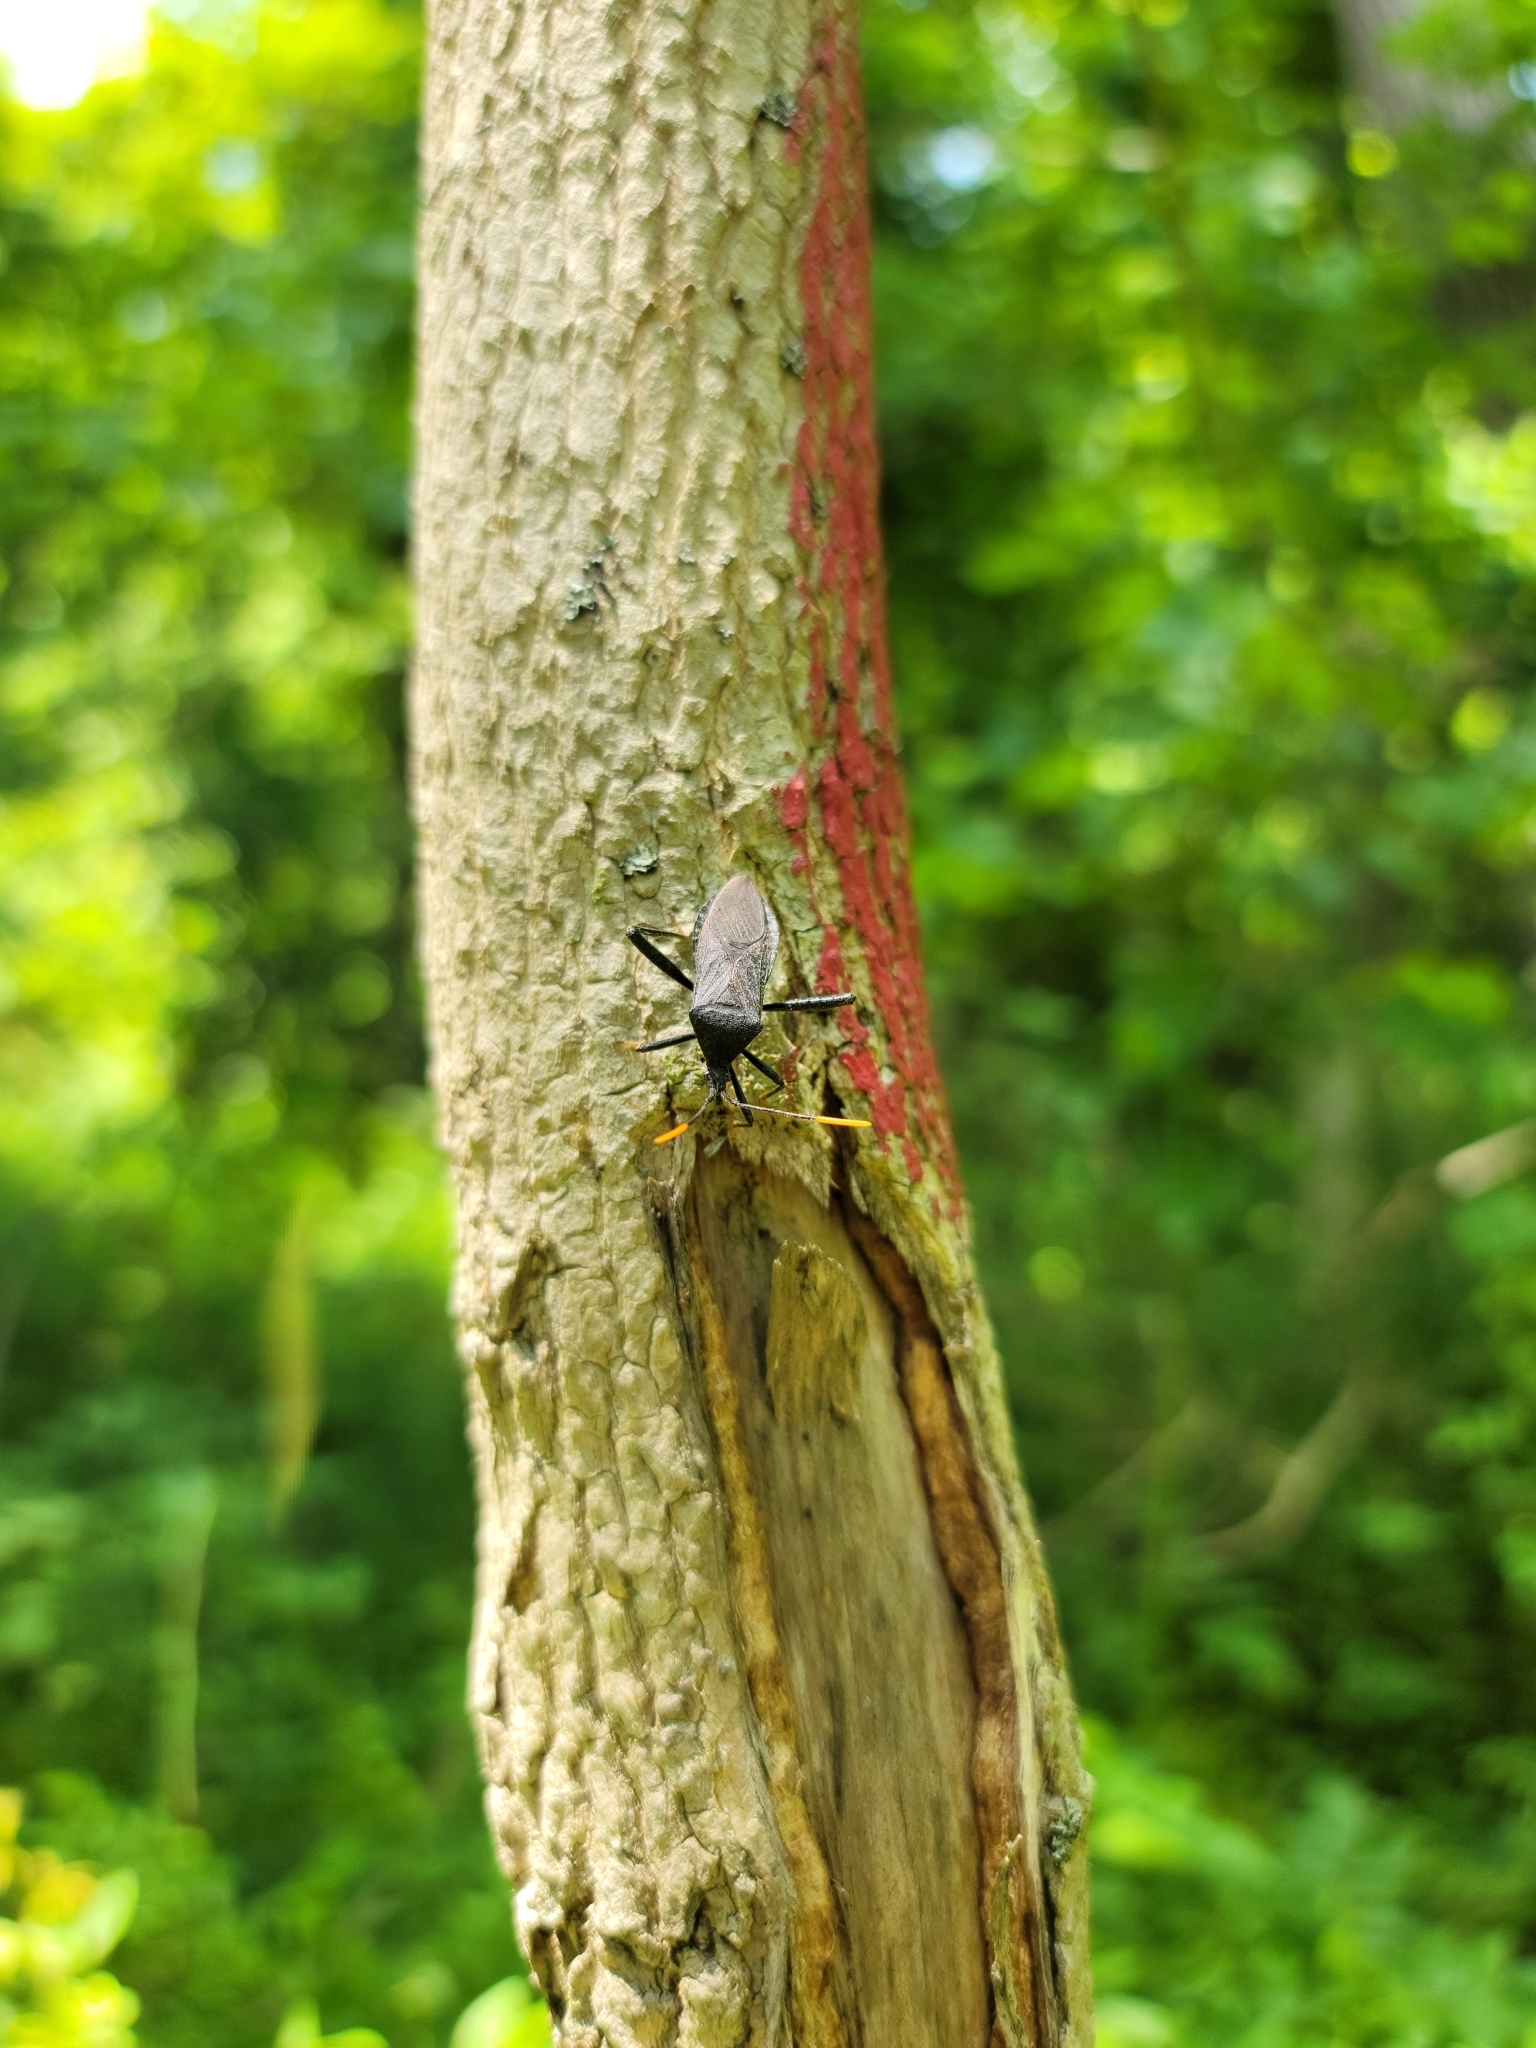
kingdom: Animalia
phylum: Arthropoda
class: Insecta
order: Hemiptera
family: Coreidae
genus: Acanthocephala
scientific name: Acanthocephala terminalis
